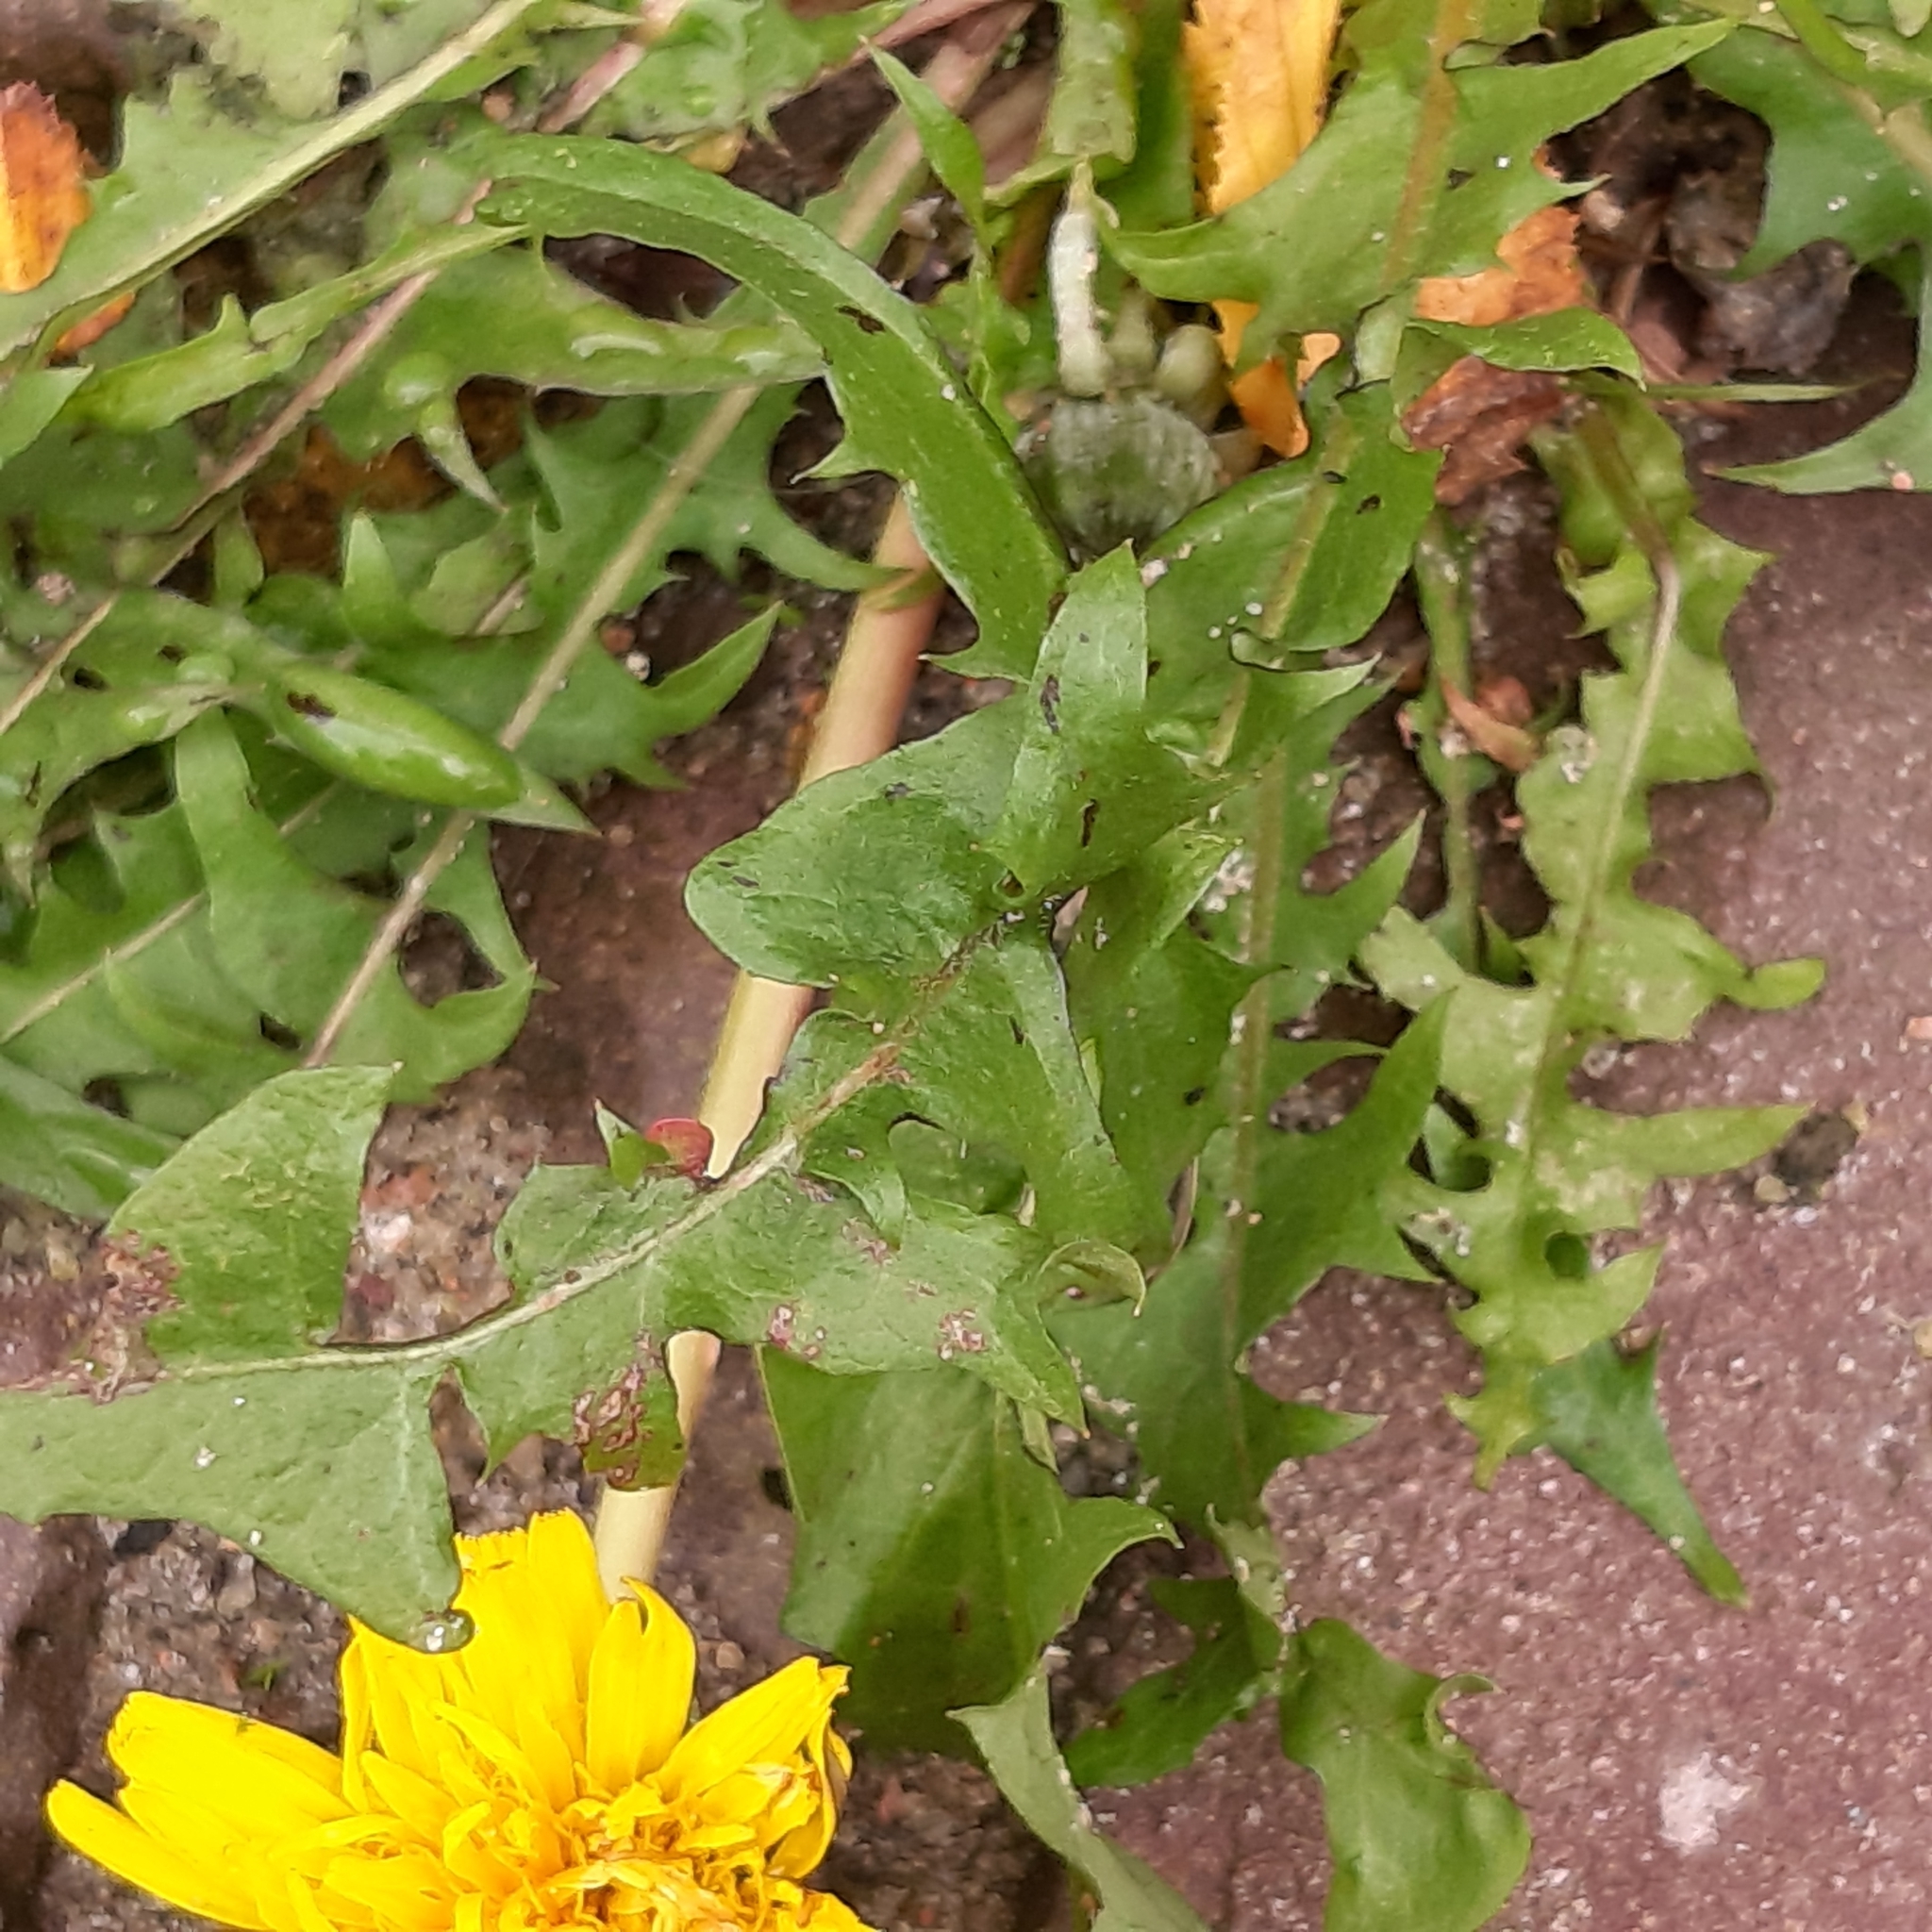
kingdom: Plantae
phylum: Tracheophyta
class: Magnoliopsida
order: Asterales
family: Asteraceae
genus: Taraxacum
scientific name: Taraxacum officinale
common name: Common dandelion
